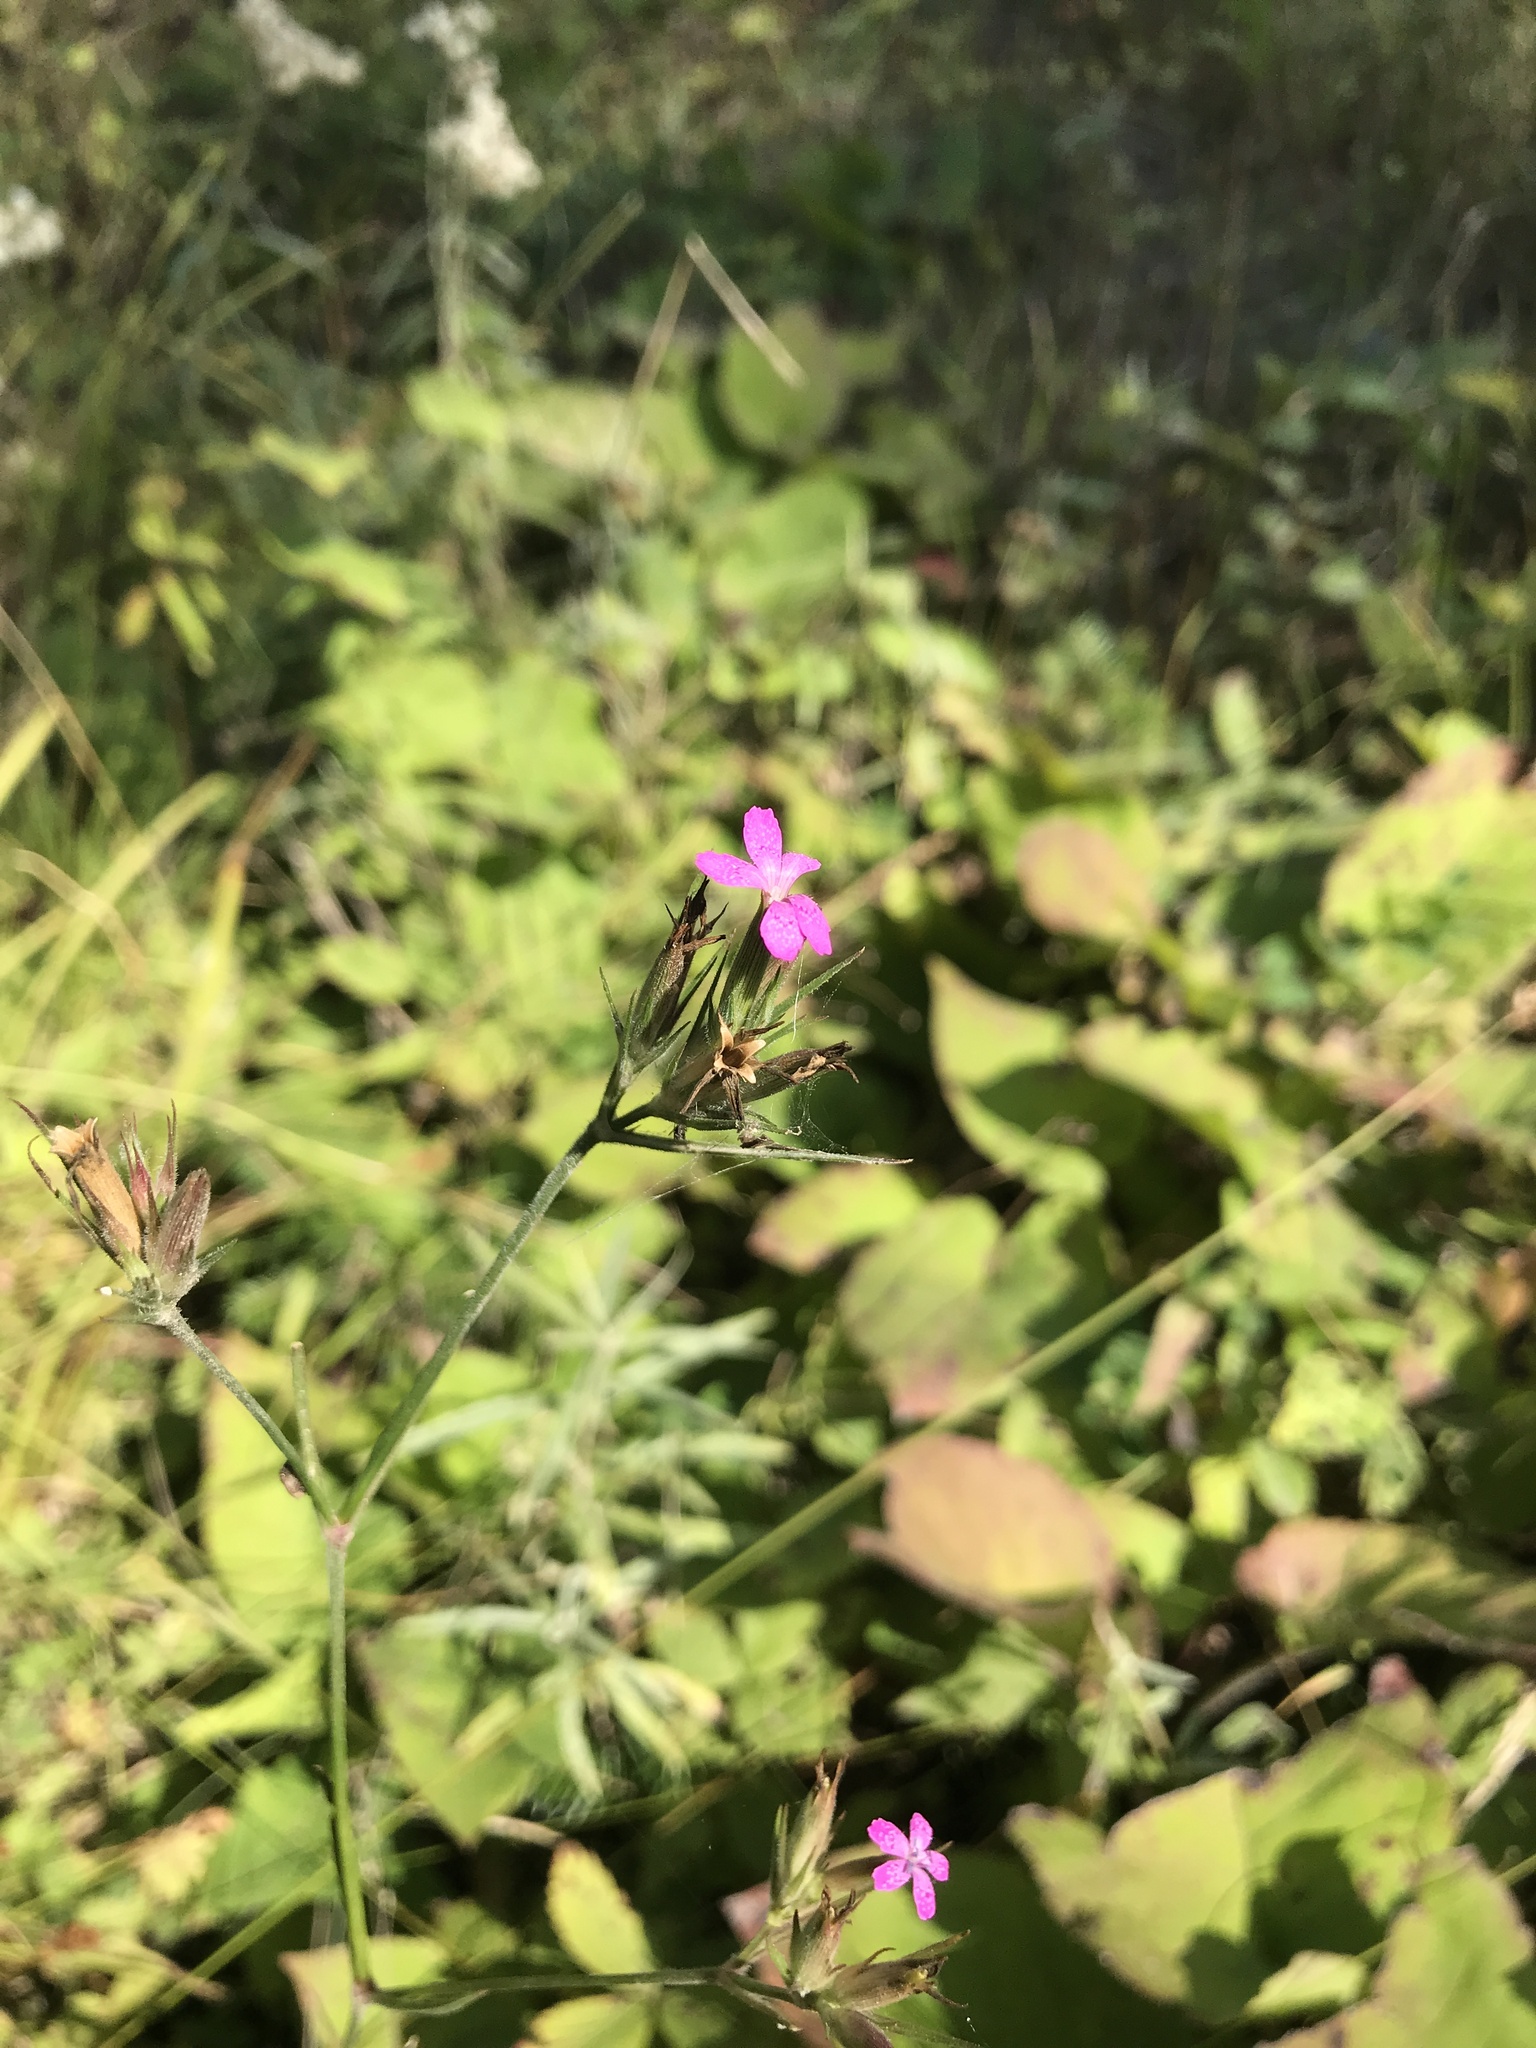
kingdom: Plantae
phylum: Tracheophyta
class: Magnoliopsida
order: Caryophyllales
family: Caryophyllaceae
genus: Dianthus
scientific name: Dianthus armeria
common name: Deptford pink
